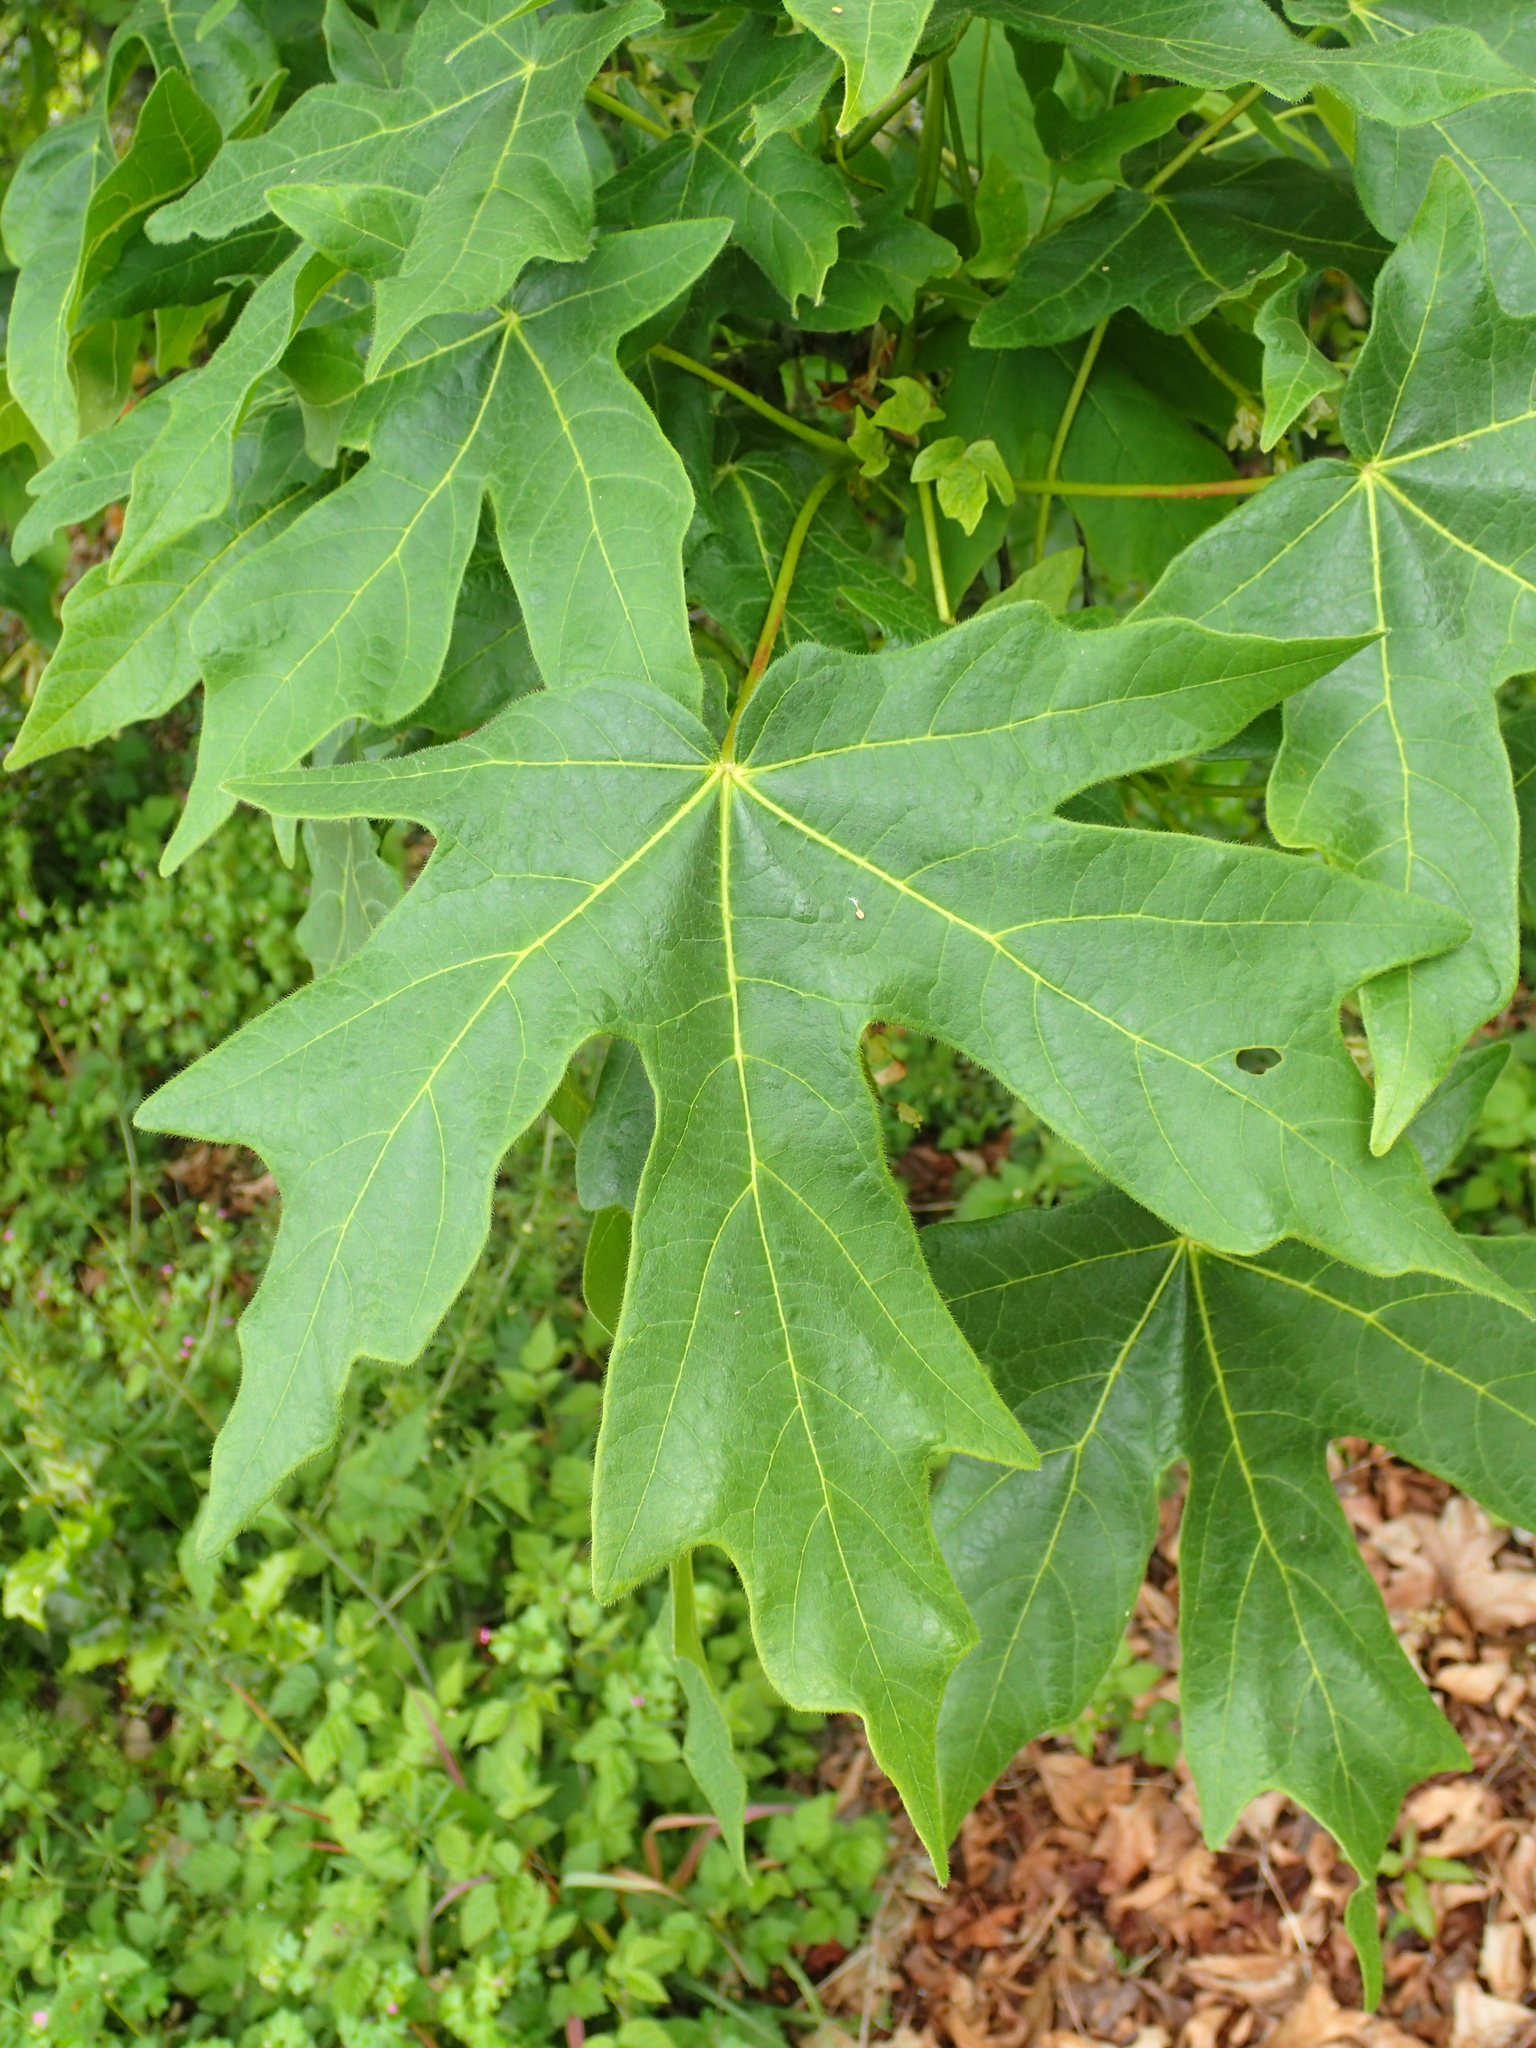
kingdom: Plantae
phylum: Tracheophyta
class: Magnoliopsida
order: Sapindales
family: Sapindaceae
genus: Acer
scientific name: Acer macrophyllum
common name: Oregon maple
